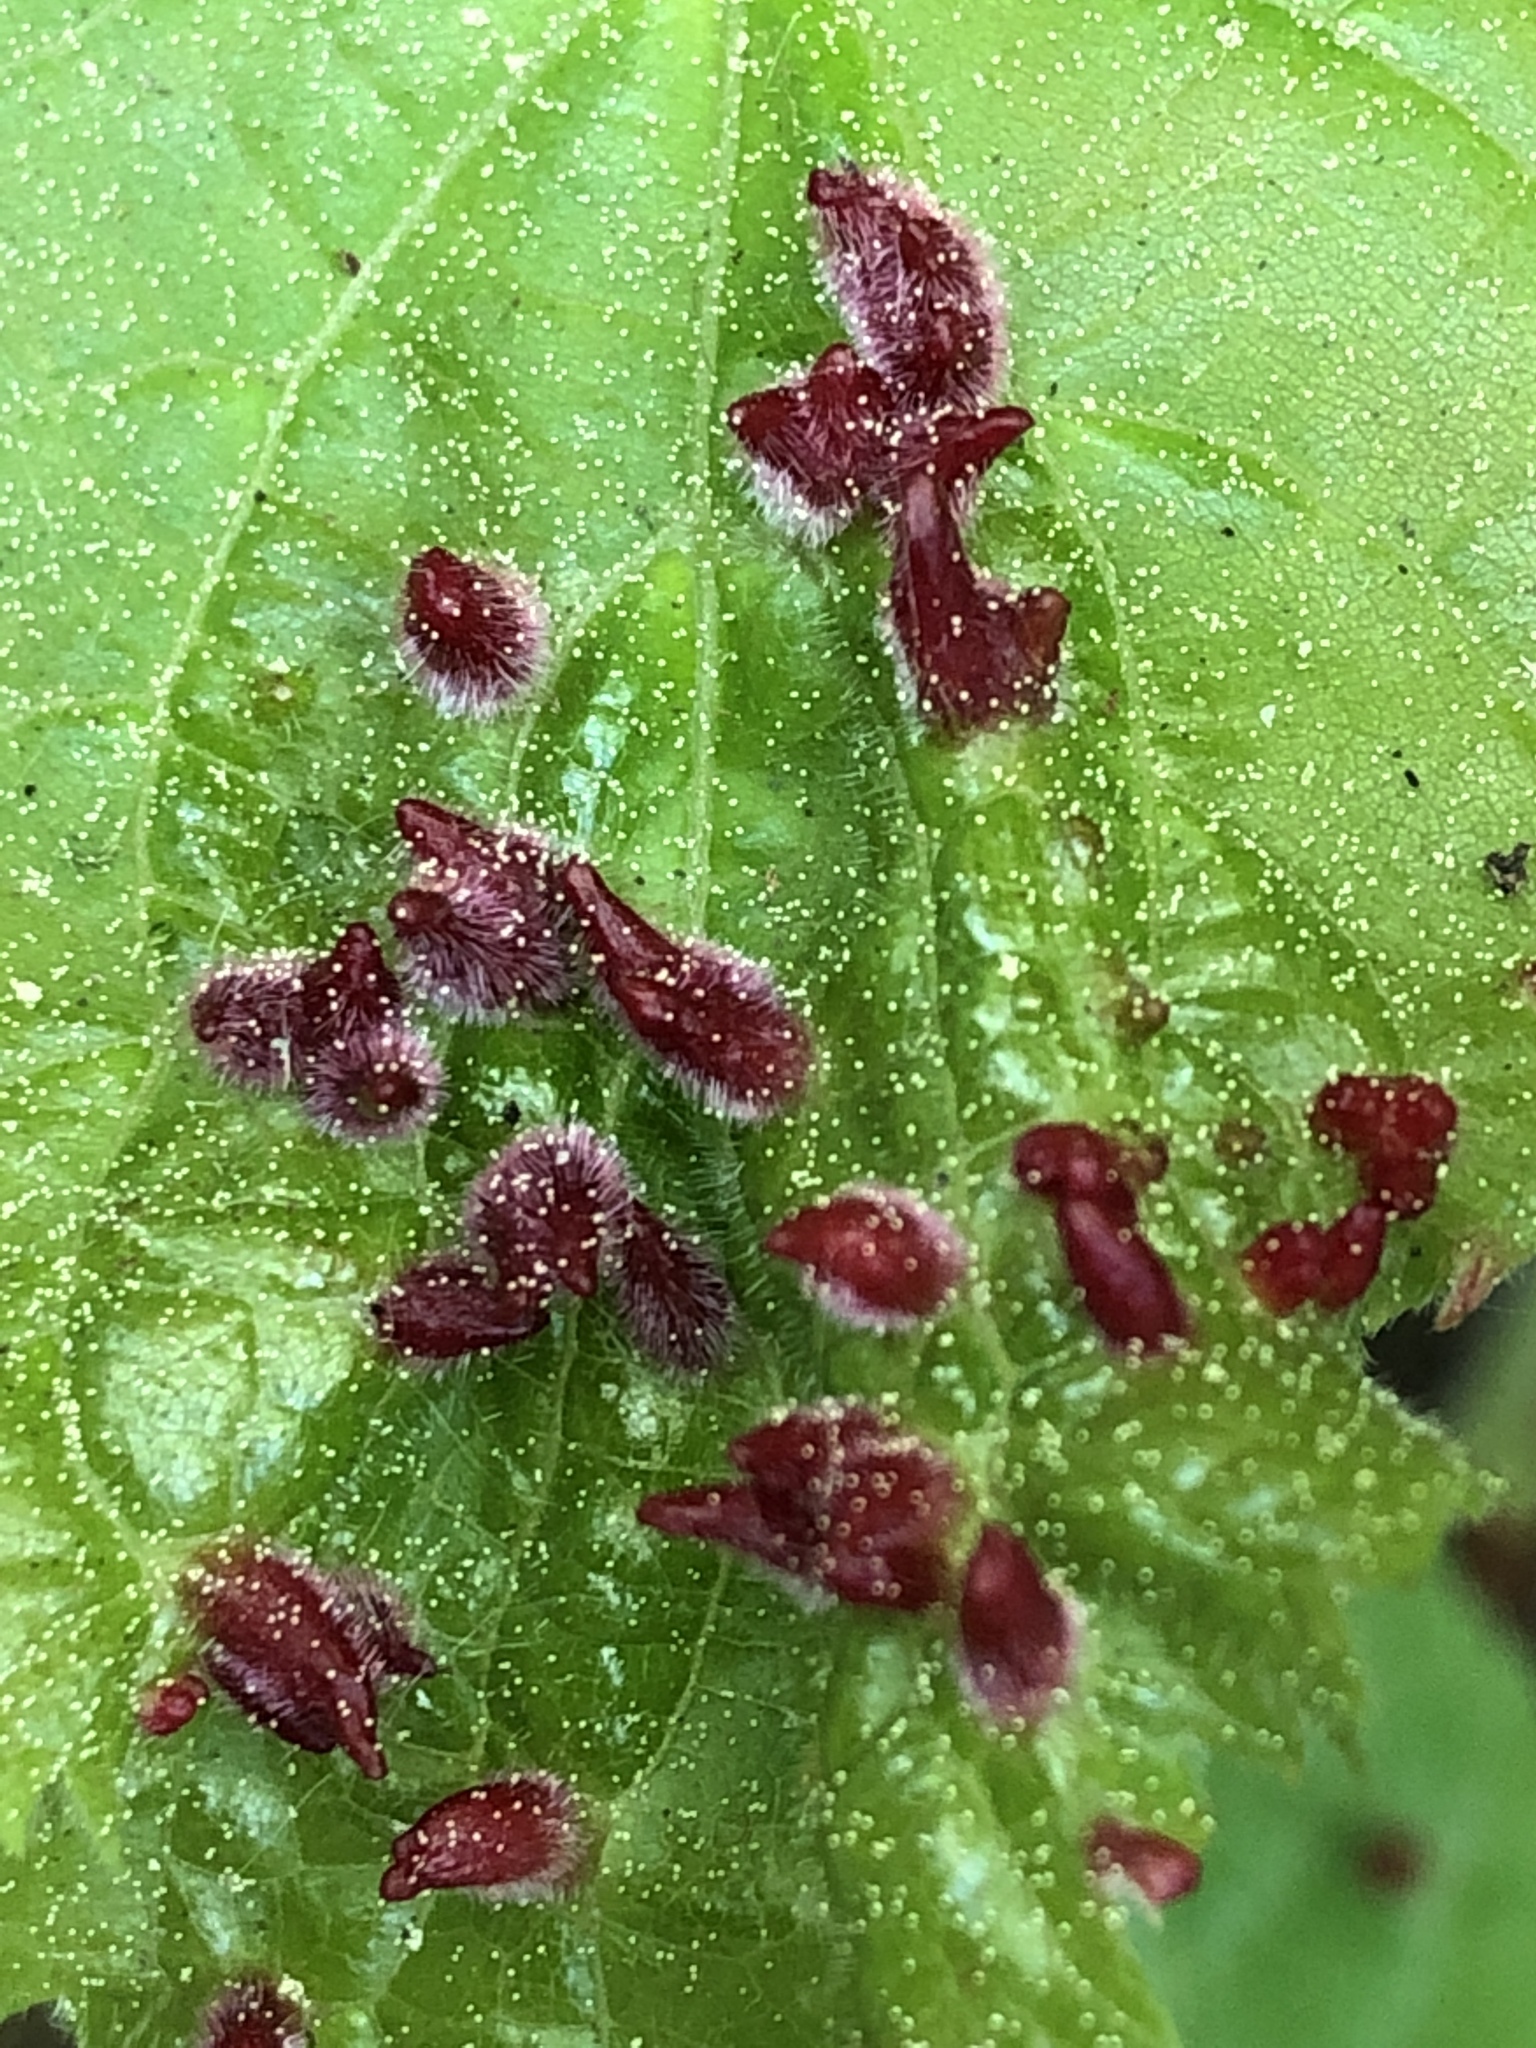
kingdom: Animalia
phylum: Arthropoda
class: Arachnida
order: Trombidiformes
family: Eriophyidae
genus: Eriophyes
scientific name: Eriophyes tiliae
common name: Red nail gall mite
